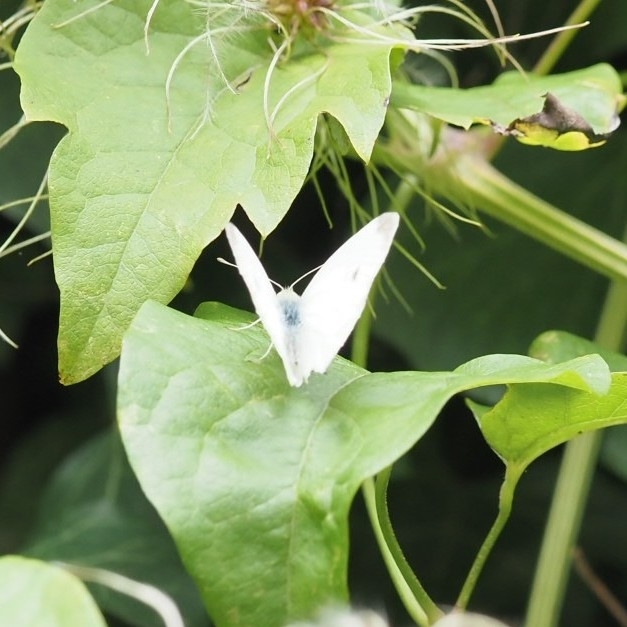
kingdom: Animalia
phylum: Arthropoda
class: Insecta
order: Lepidoptera
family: Pieridae
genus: Pieris
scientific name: Pieris rapae
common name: Small white
